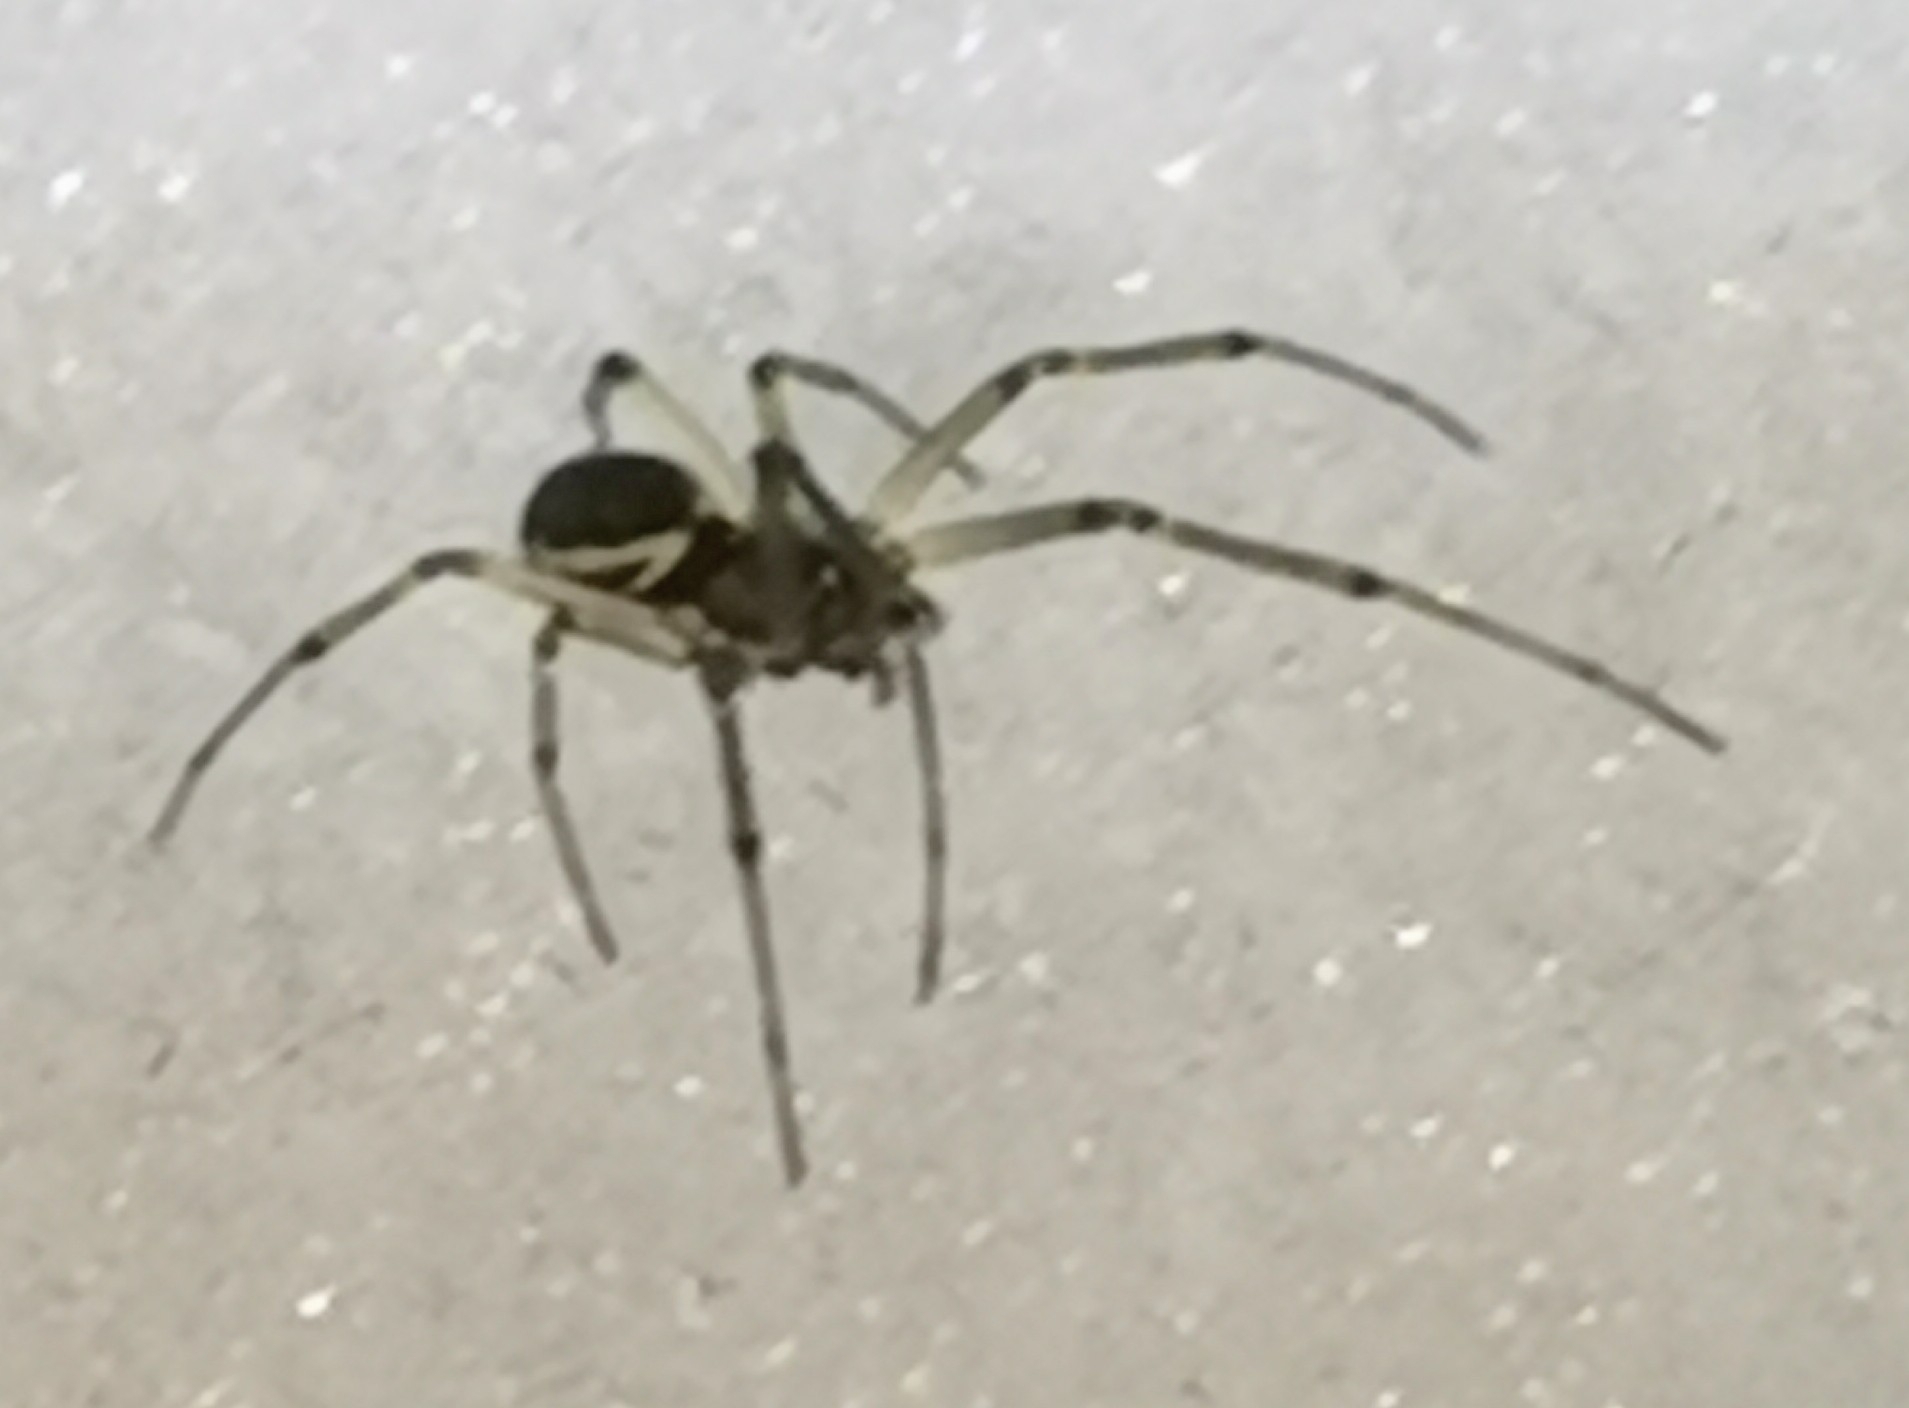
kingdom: Animalia
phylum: Arthropoda
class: Arachnida
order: Araneae
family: Linyphiidae
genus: Neriene
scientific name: Neriene peltata
